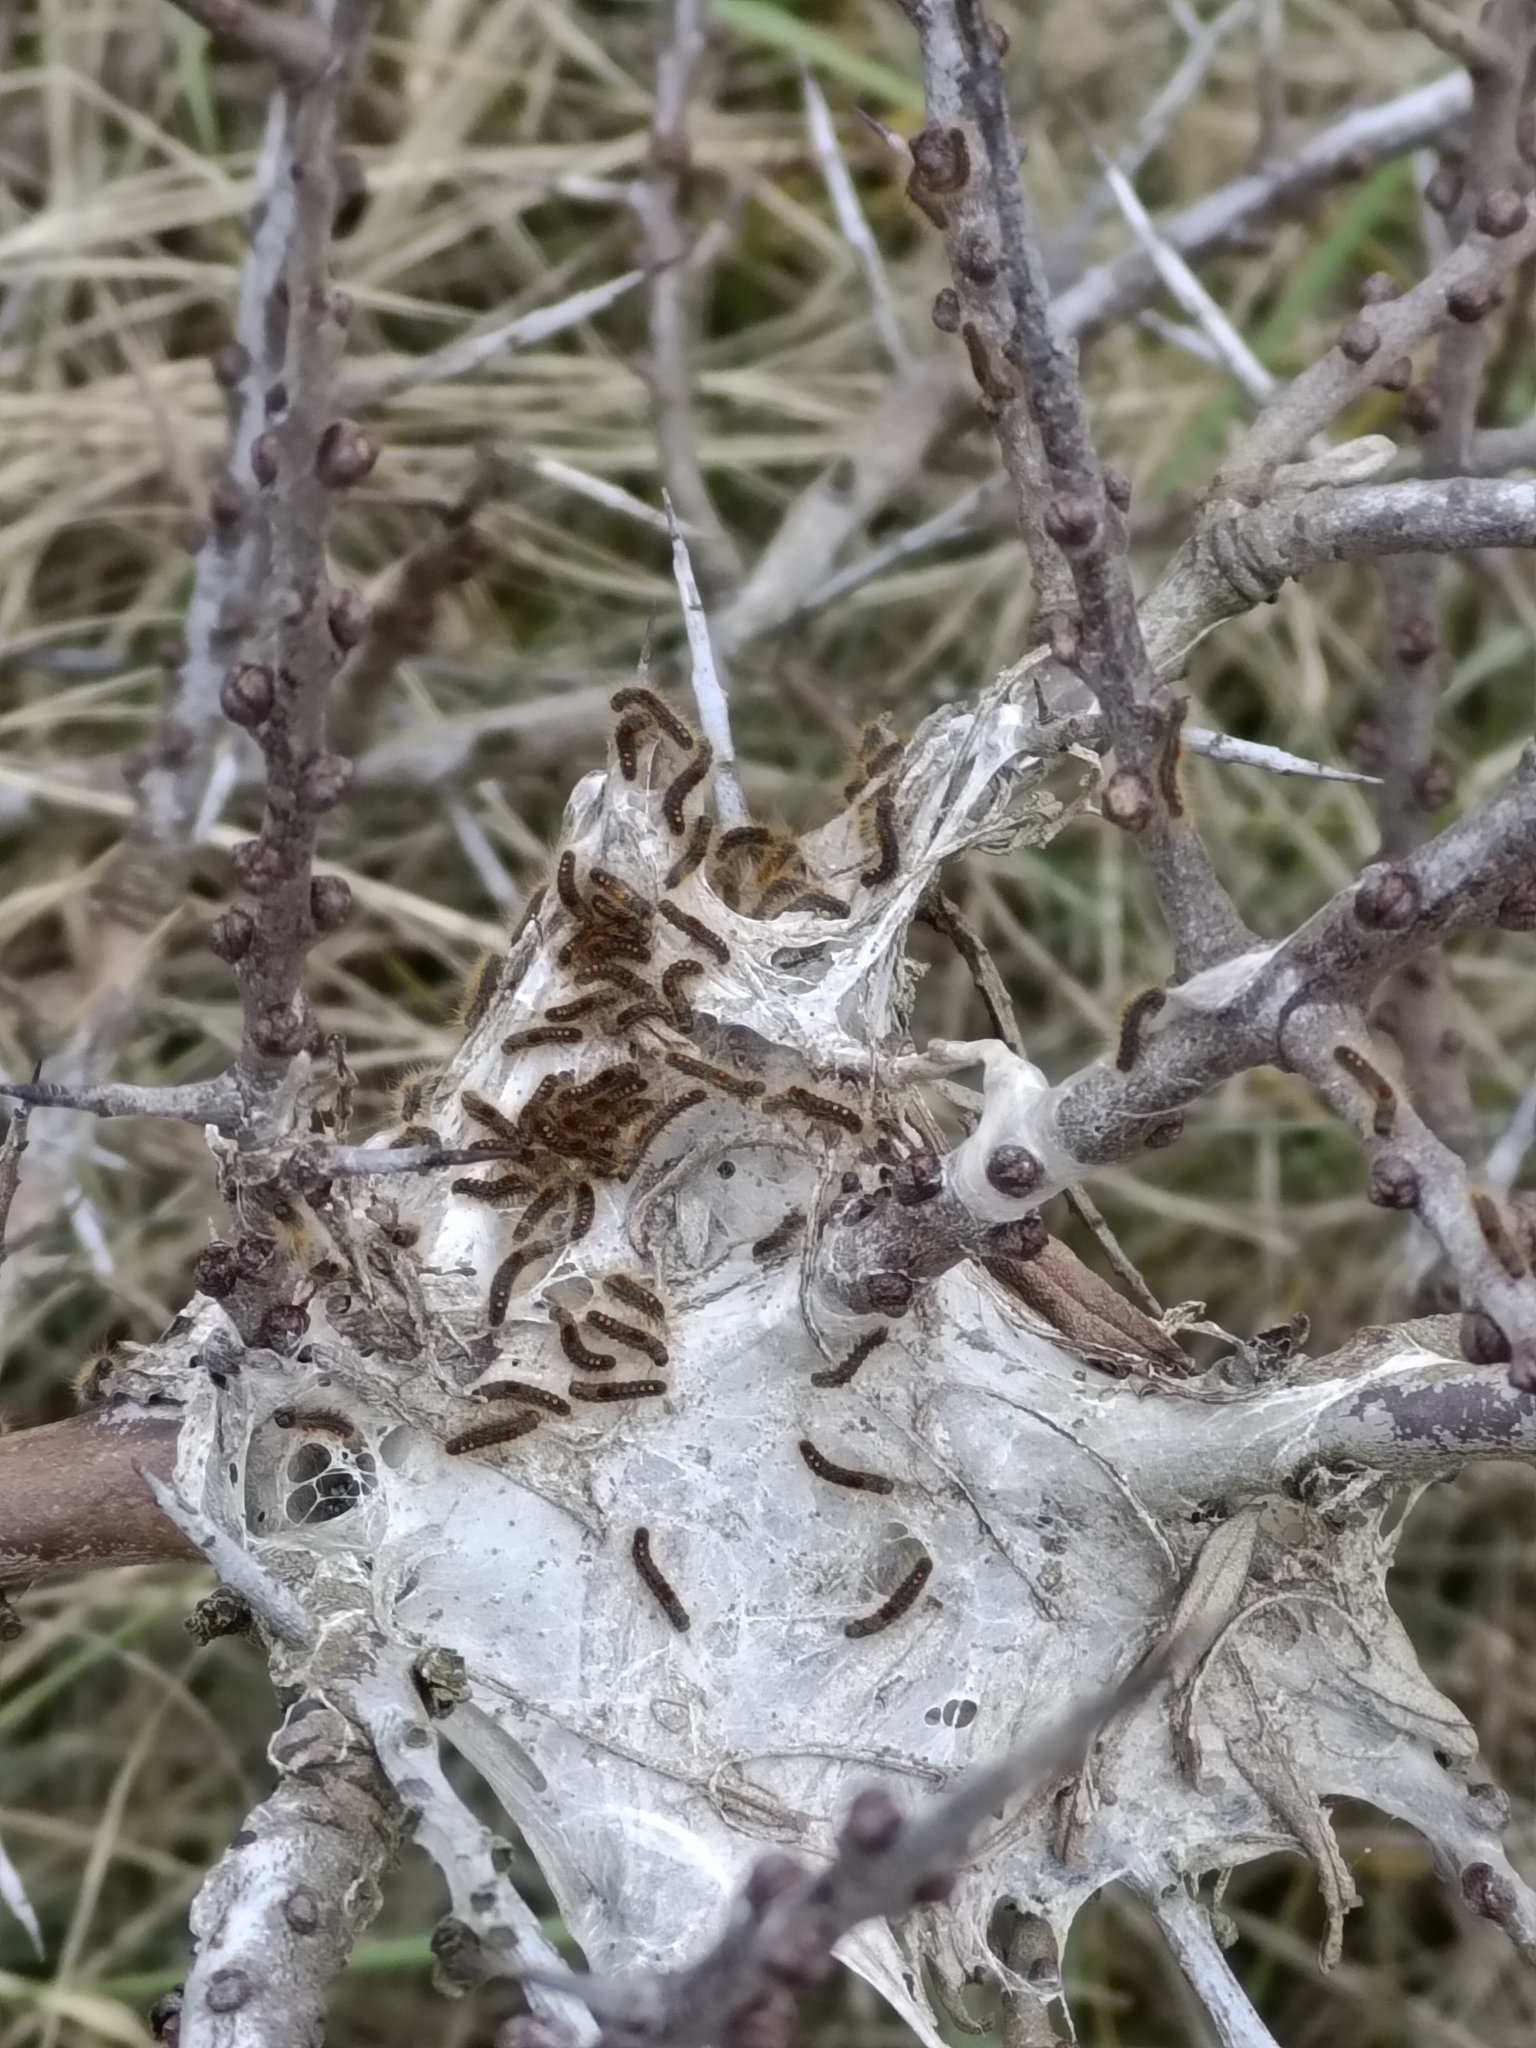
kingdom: Animalia
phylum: Arthropoda
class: Insecta
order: Lepidoptera
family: Erebidae
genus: Euproctis
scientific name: Euproctis chrysorrhoea
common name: Brown-tail
